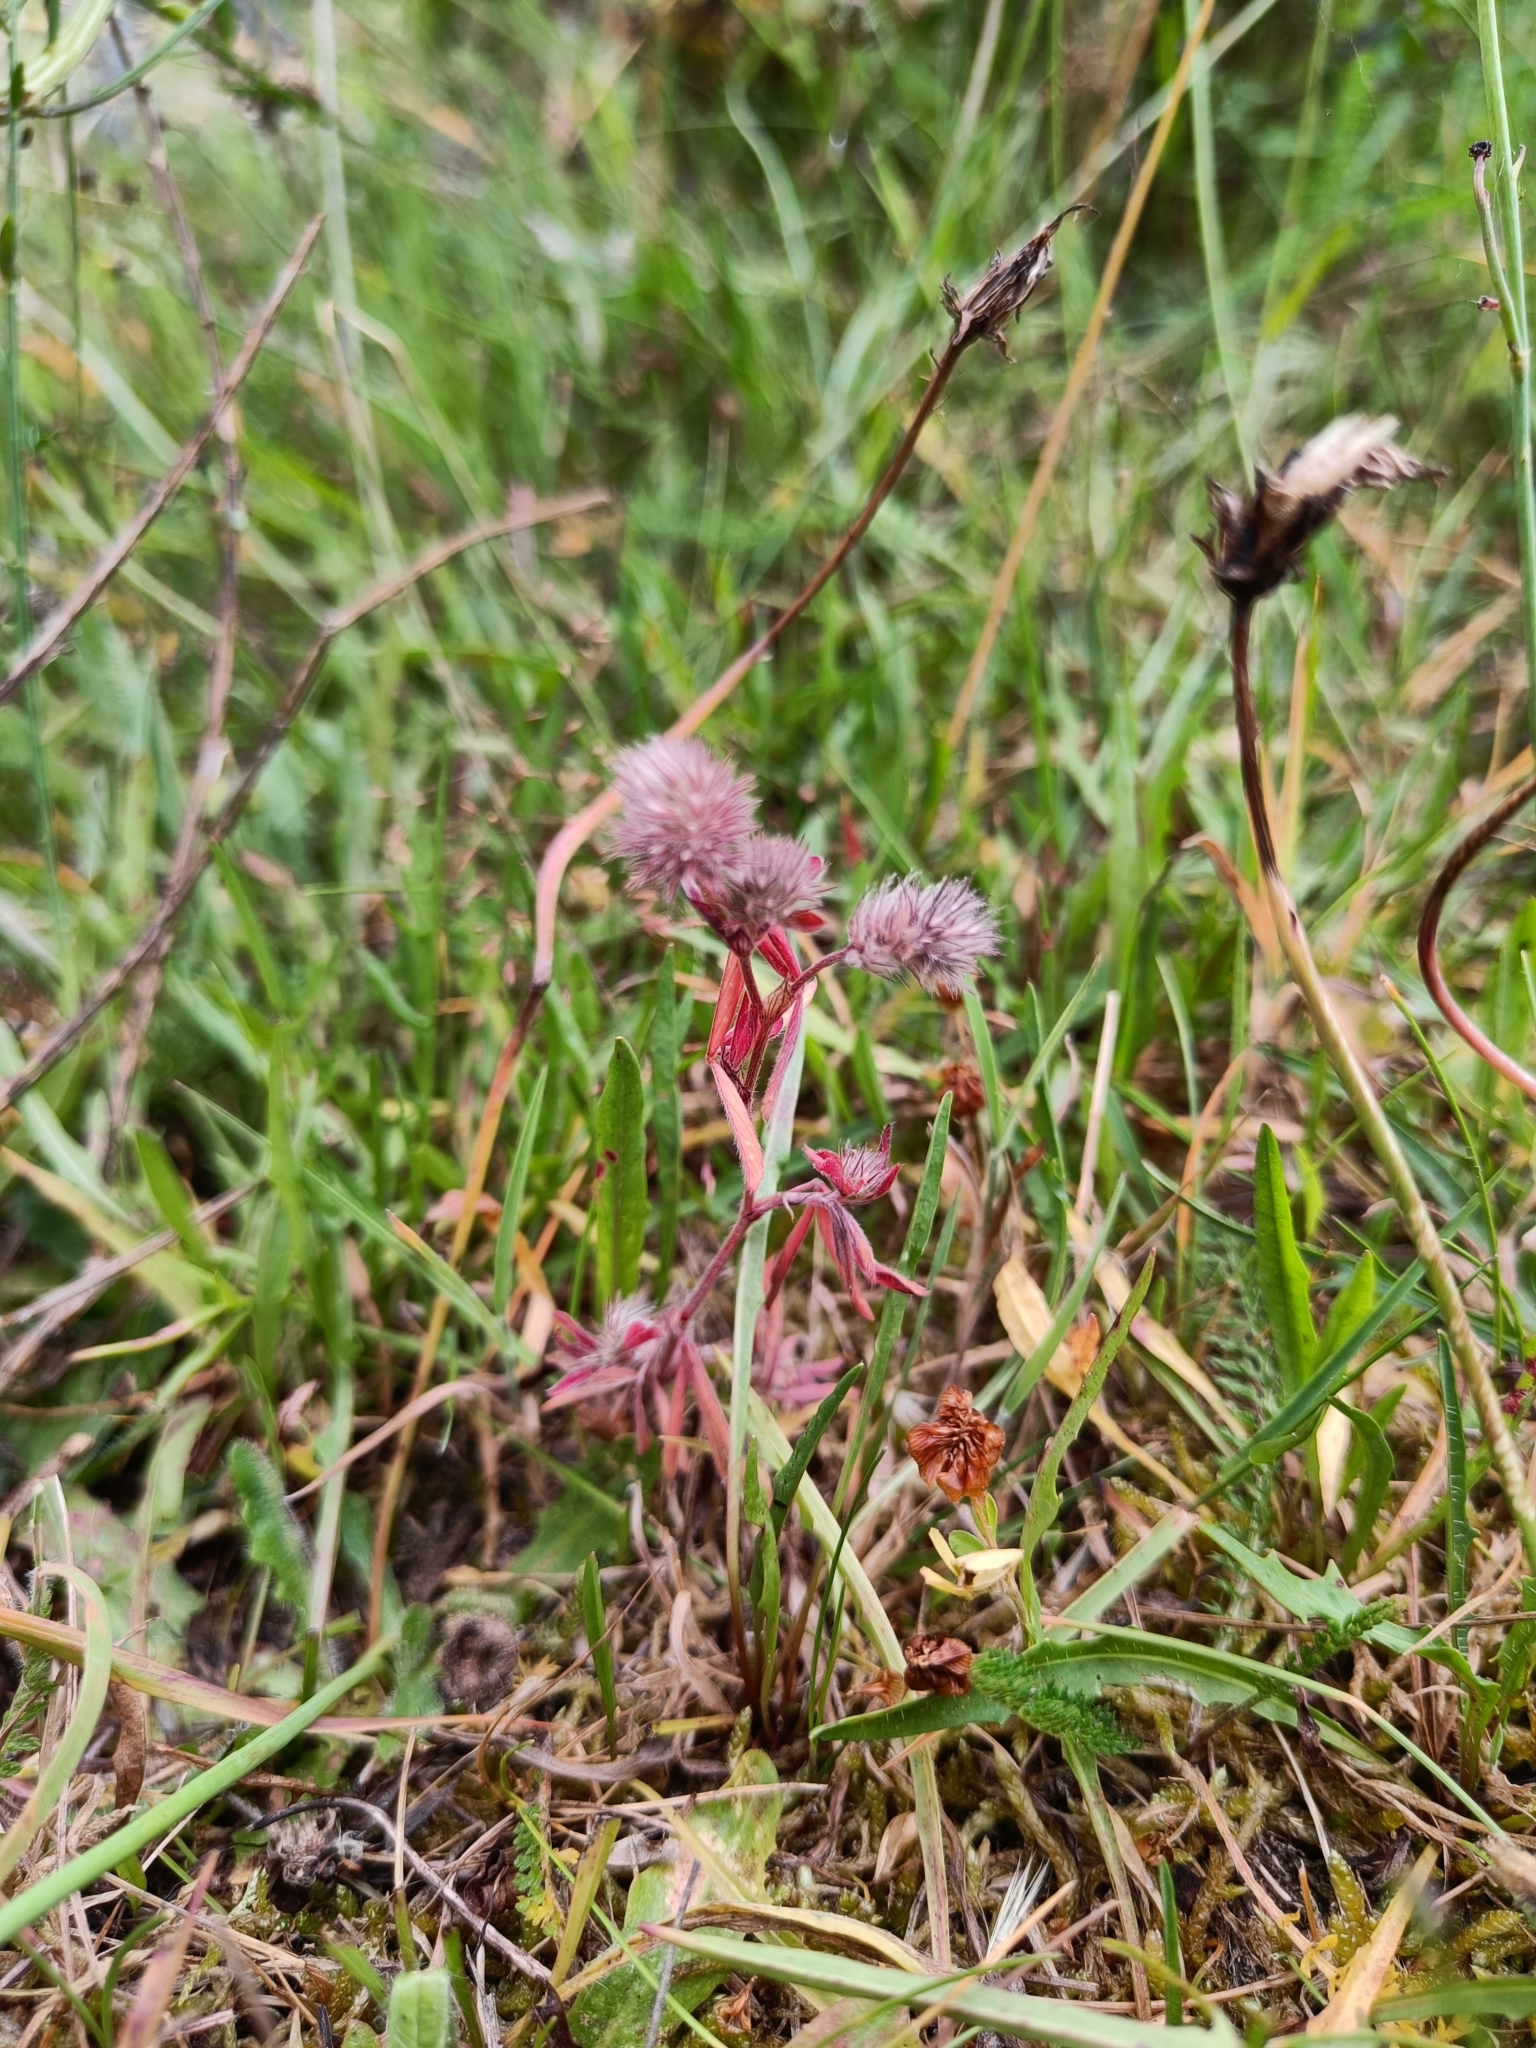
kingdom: Plantae
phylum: Tracheophyta
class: Magnoliopsida
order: Fabales
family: Fabaceae
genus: Trifolium
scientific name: Trifolium arvense
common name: Hare's-foot clover
